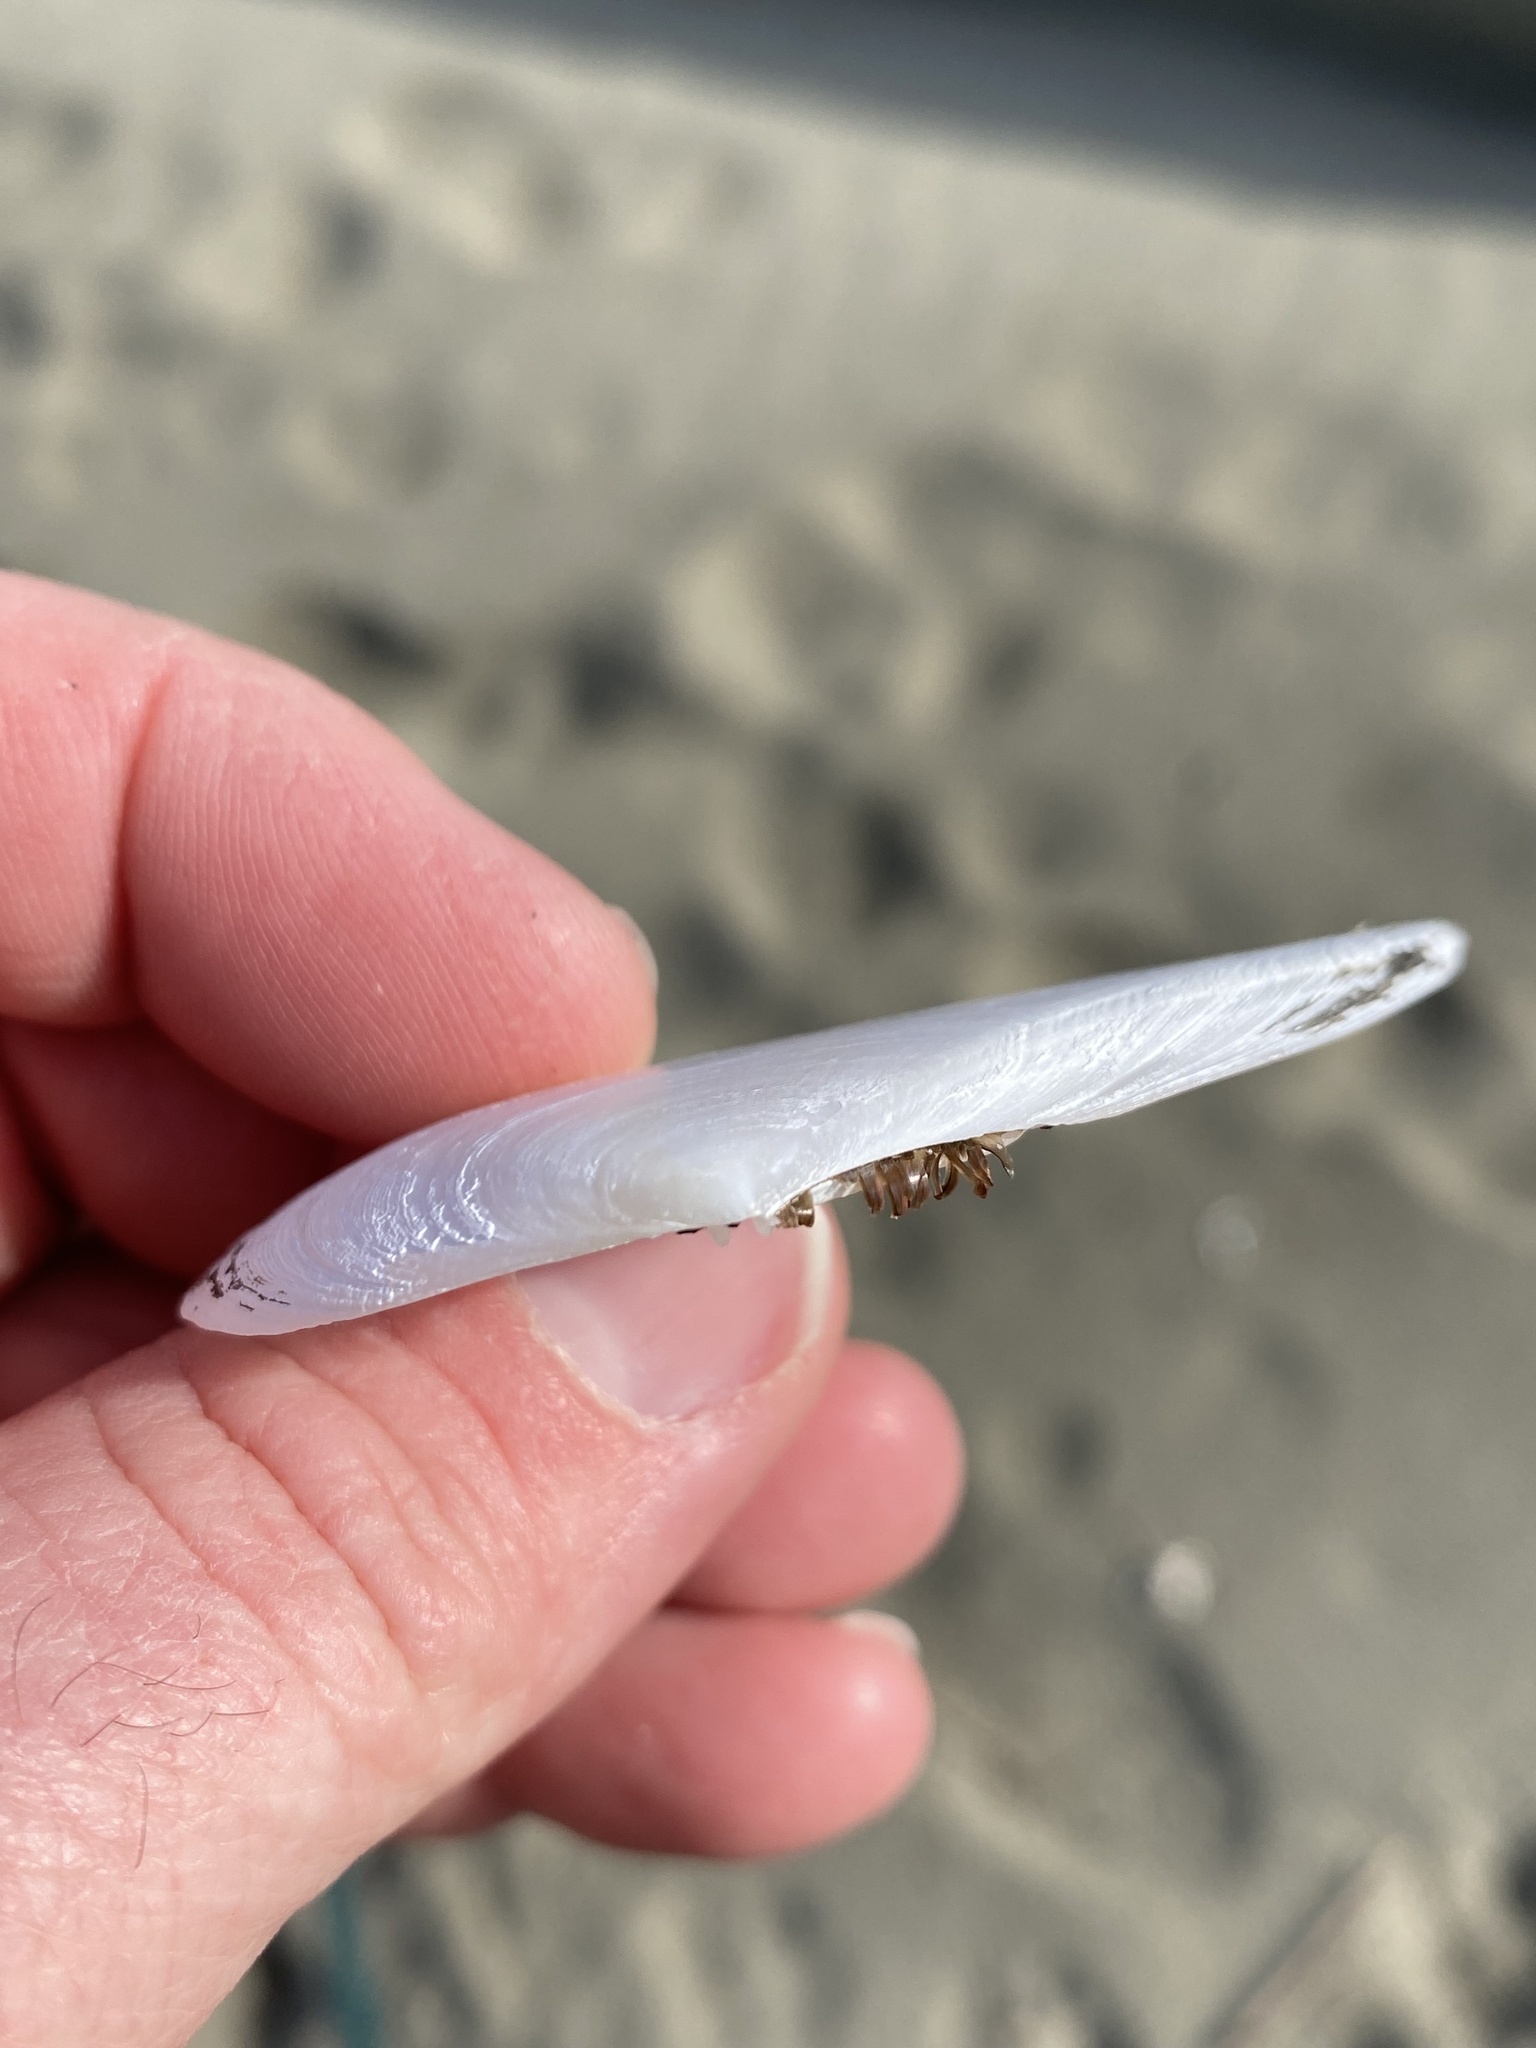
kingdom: Animalia
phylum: Mollusca
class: Bivalvia
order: Cardiida
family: Tellinidae
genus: Bartschicoma
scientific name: Bartschicoma gaimardi
